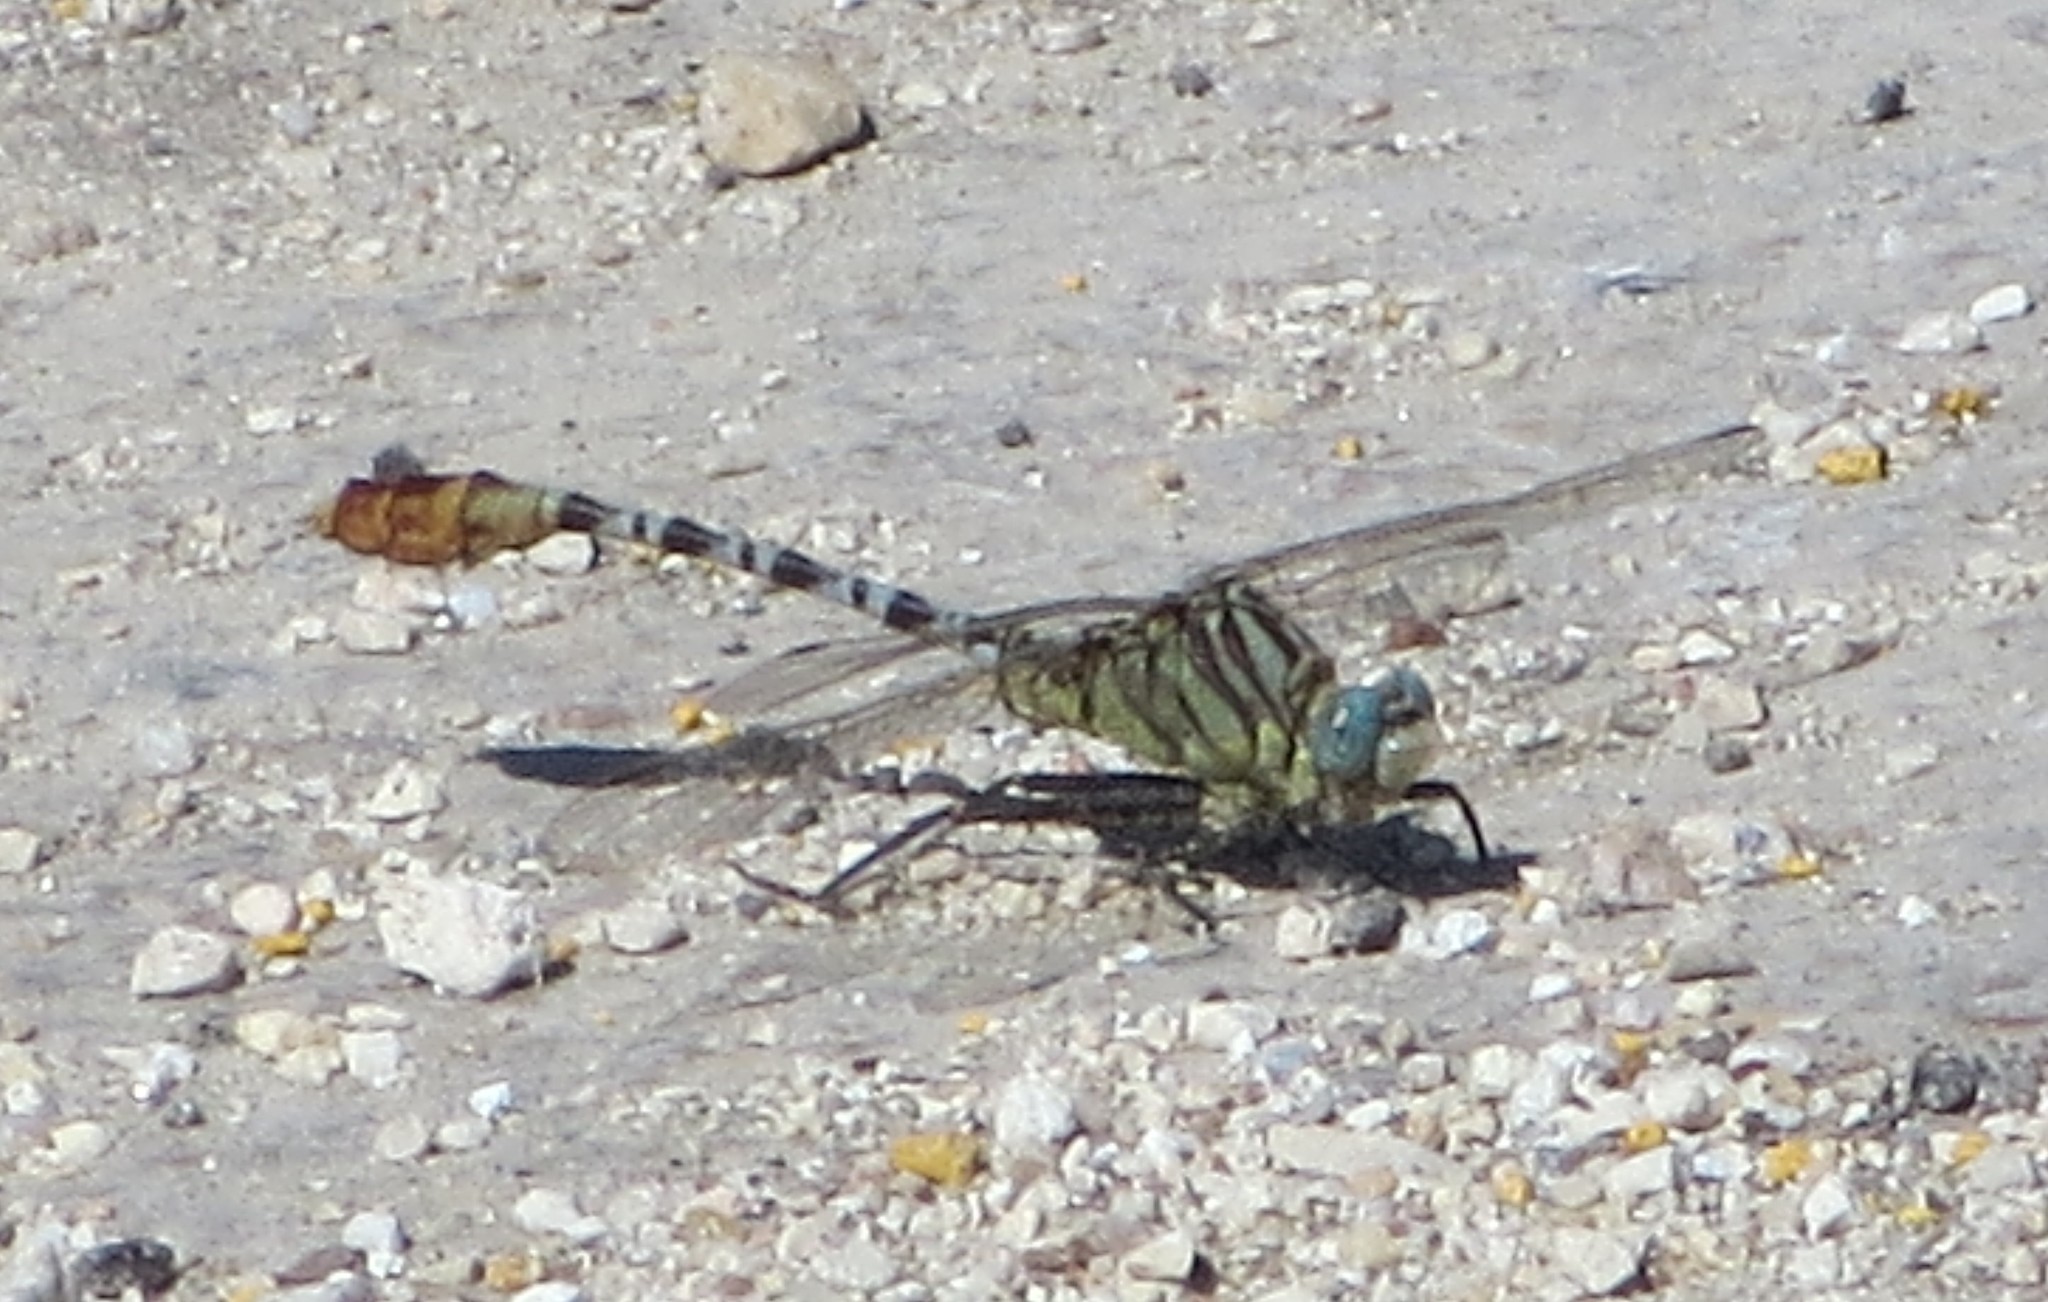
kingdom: Animalia
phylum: Arthropoda
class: Insecta
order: Odonata
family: Gomphidae
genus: Dromogomphus
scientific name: Dromogomphus spoliatus
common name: Flag-tailed spinyleg
